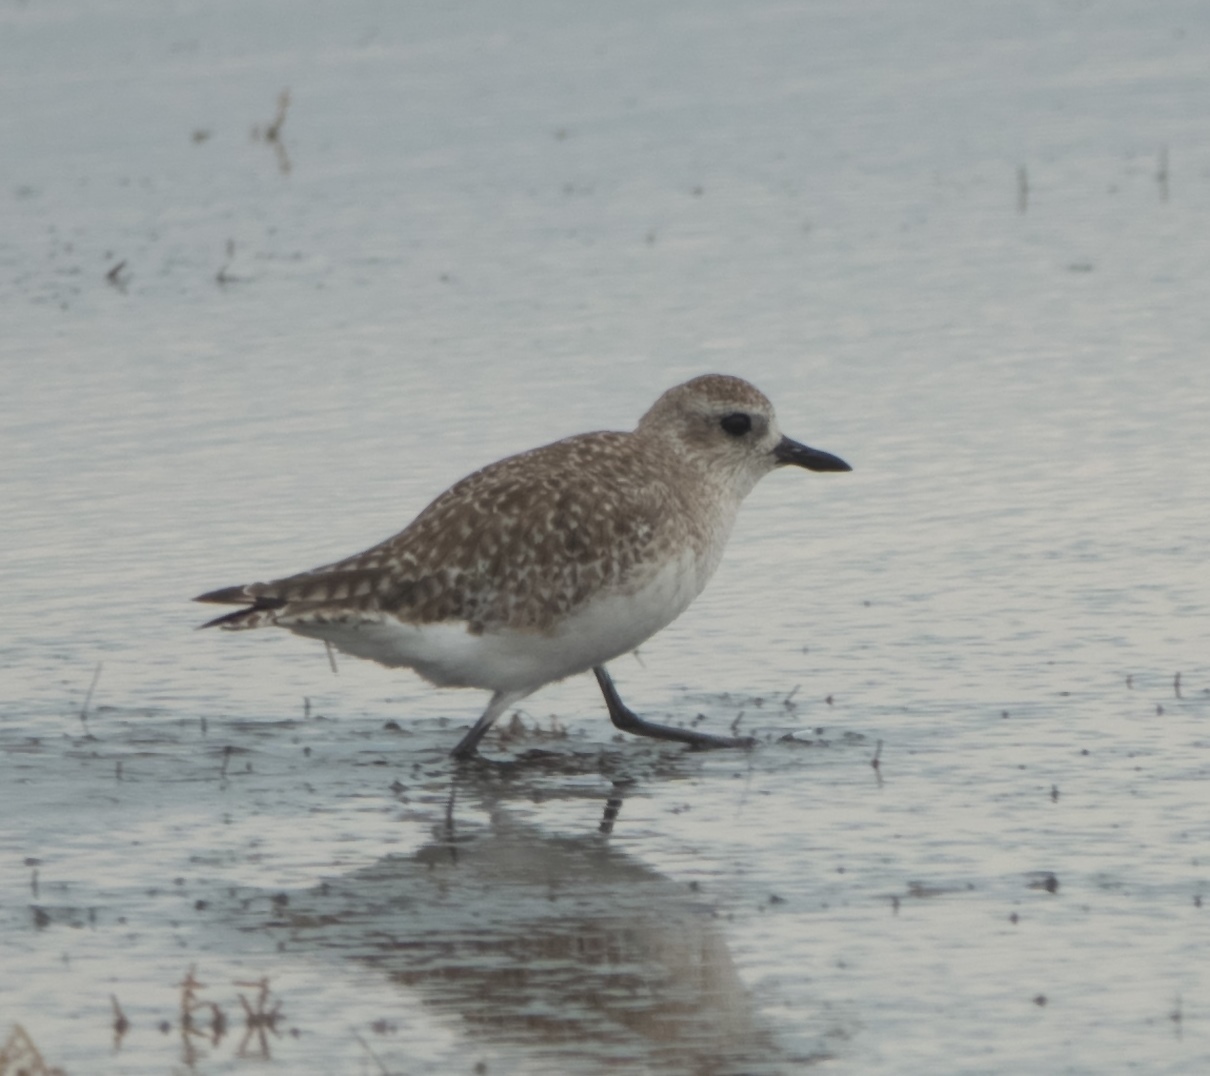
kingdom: Animalia
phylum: Chordata
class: Aves
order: Charadriiformes
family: Charadriidae
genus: Pluvialis
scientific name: Pluvialis squatarola
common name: Grey plover
